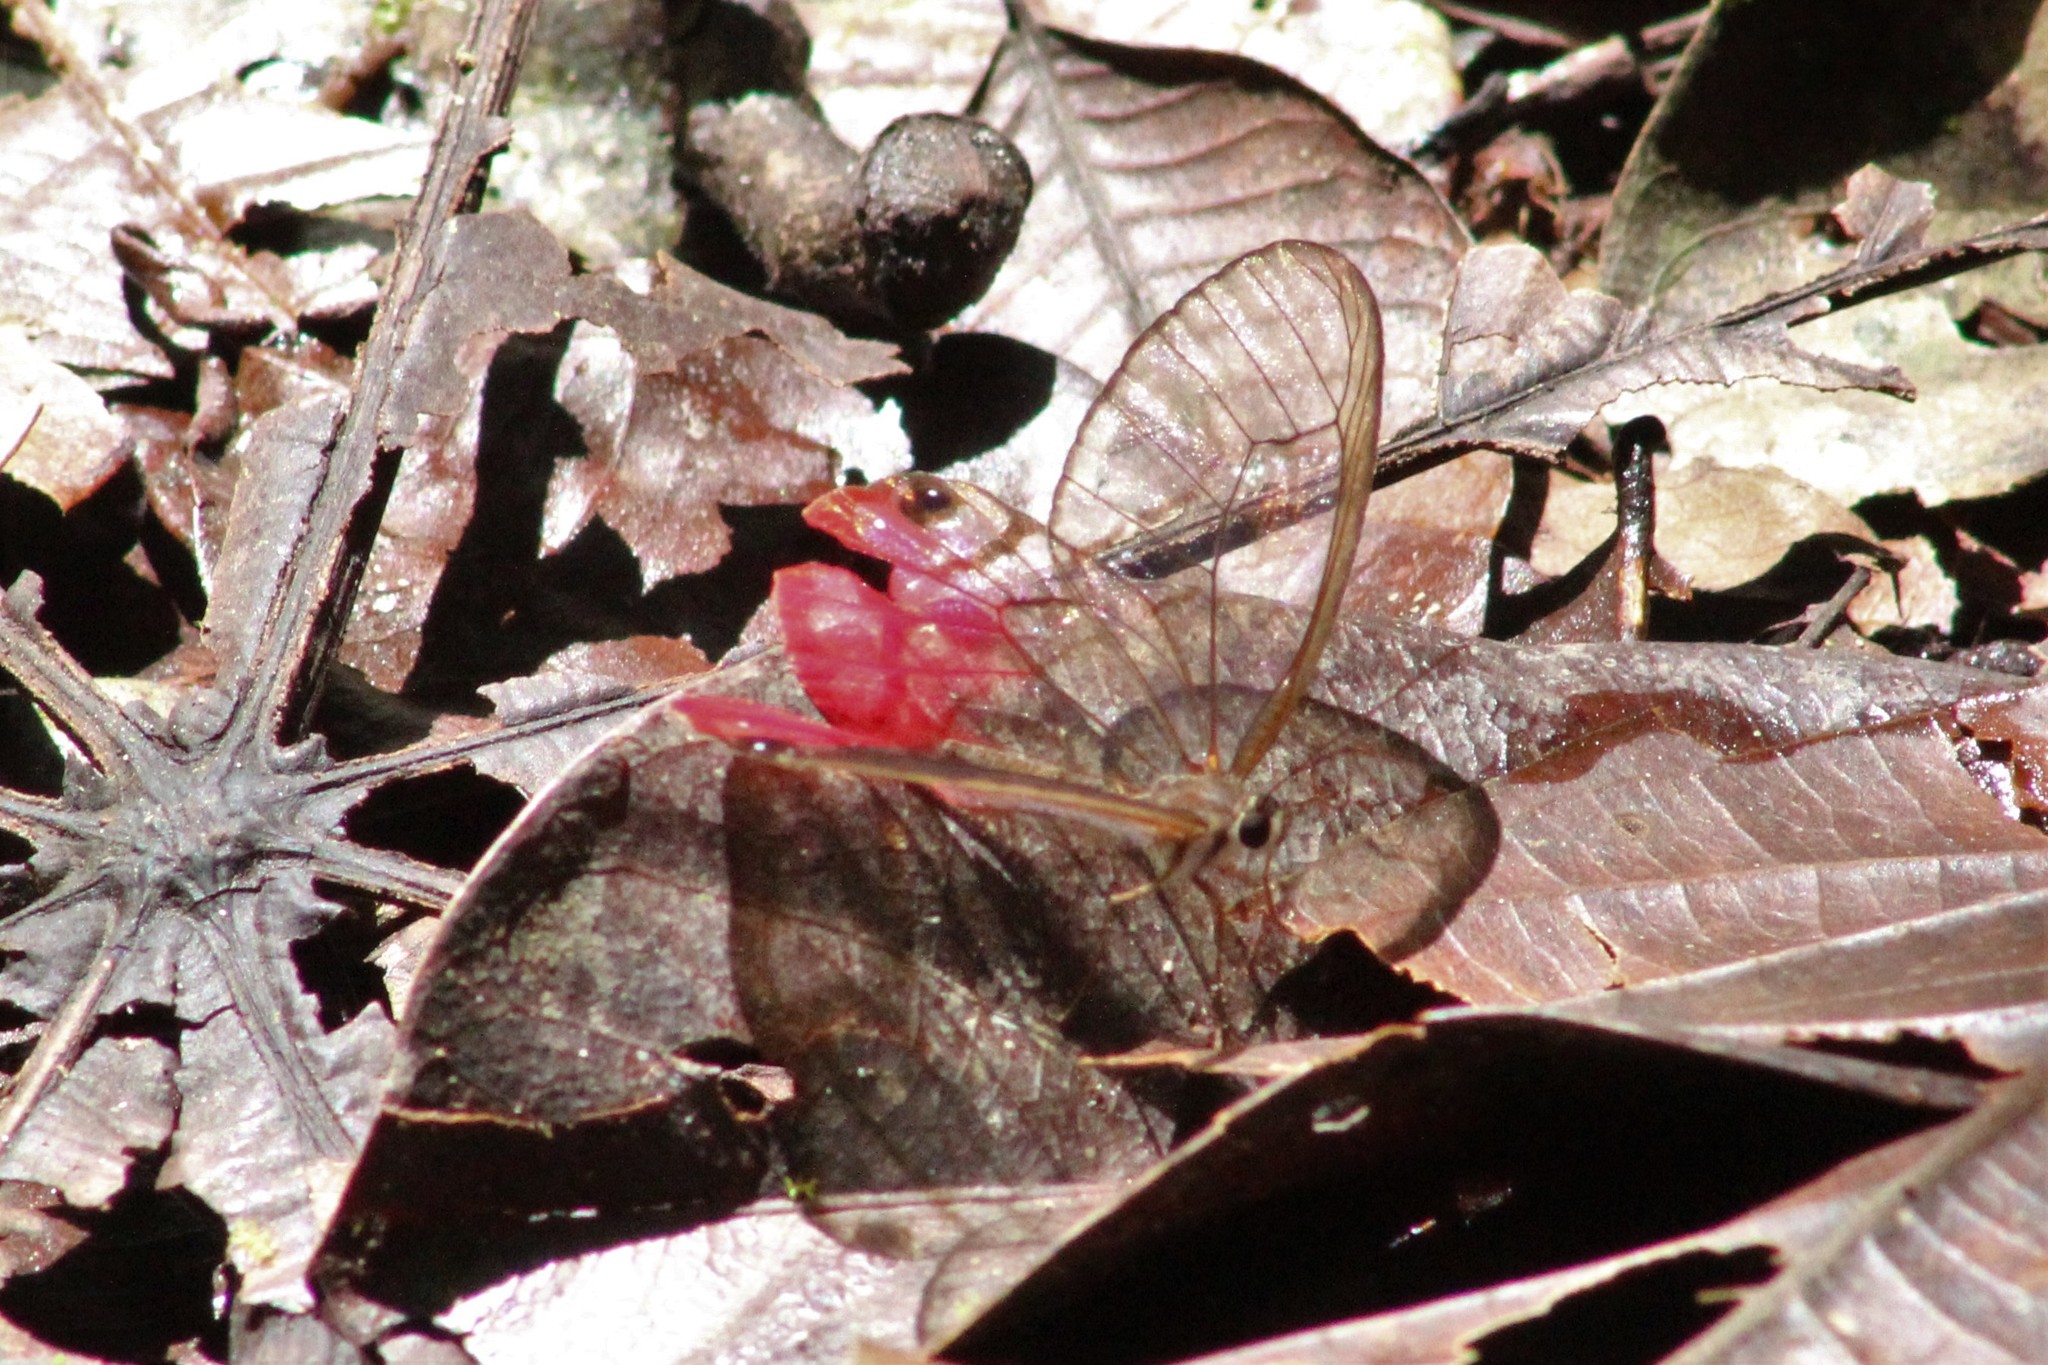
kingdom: Animalia
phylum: Arthropoda
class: Insecta
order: Lepidoptera
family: Nymphalidae
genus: Cithaerias
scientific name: Cithaerias pireta
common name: Rusted clearwing-satyr
